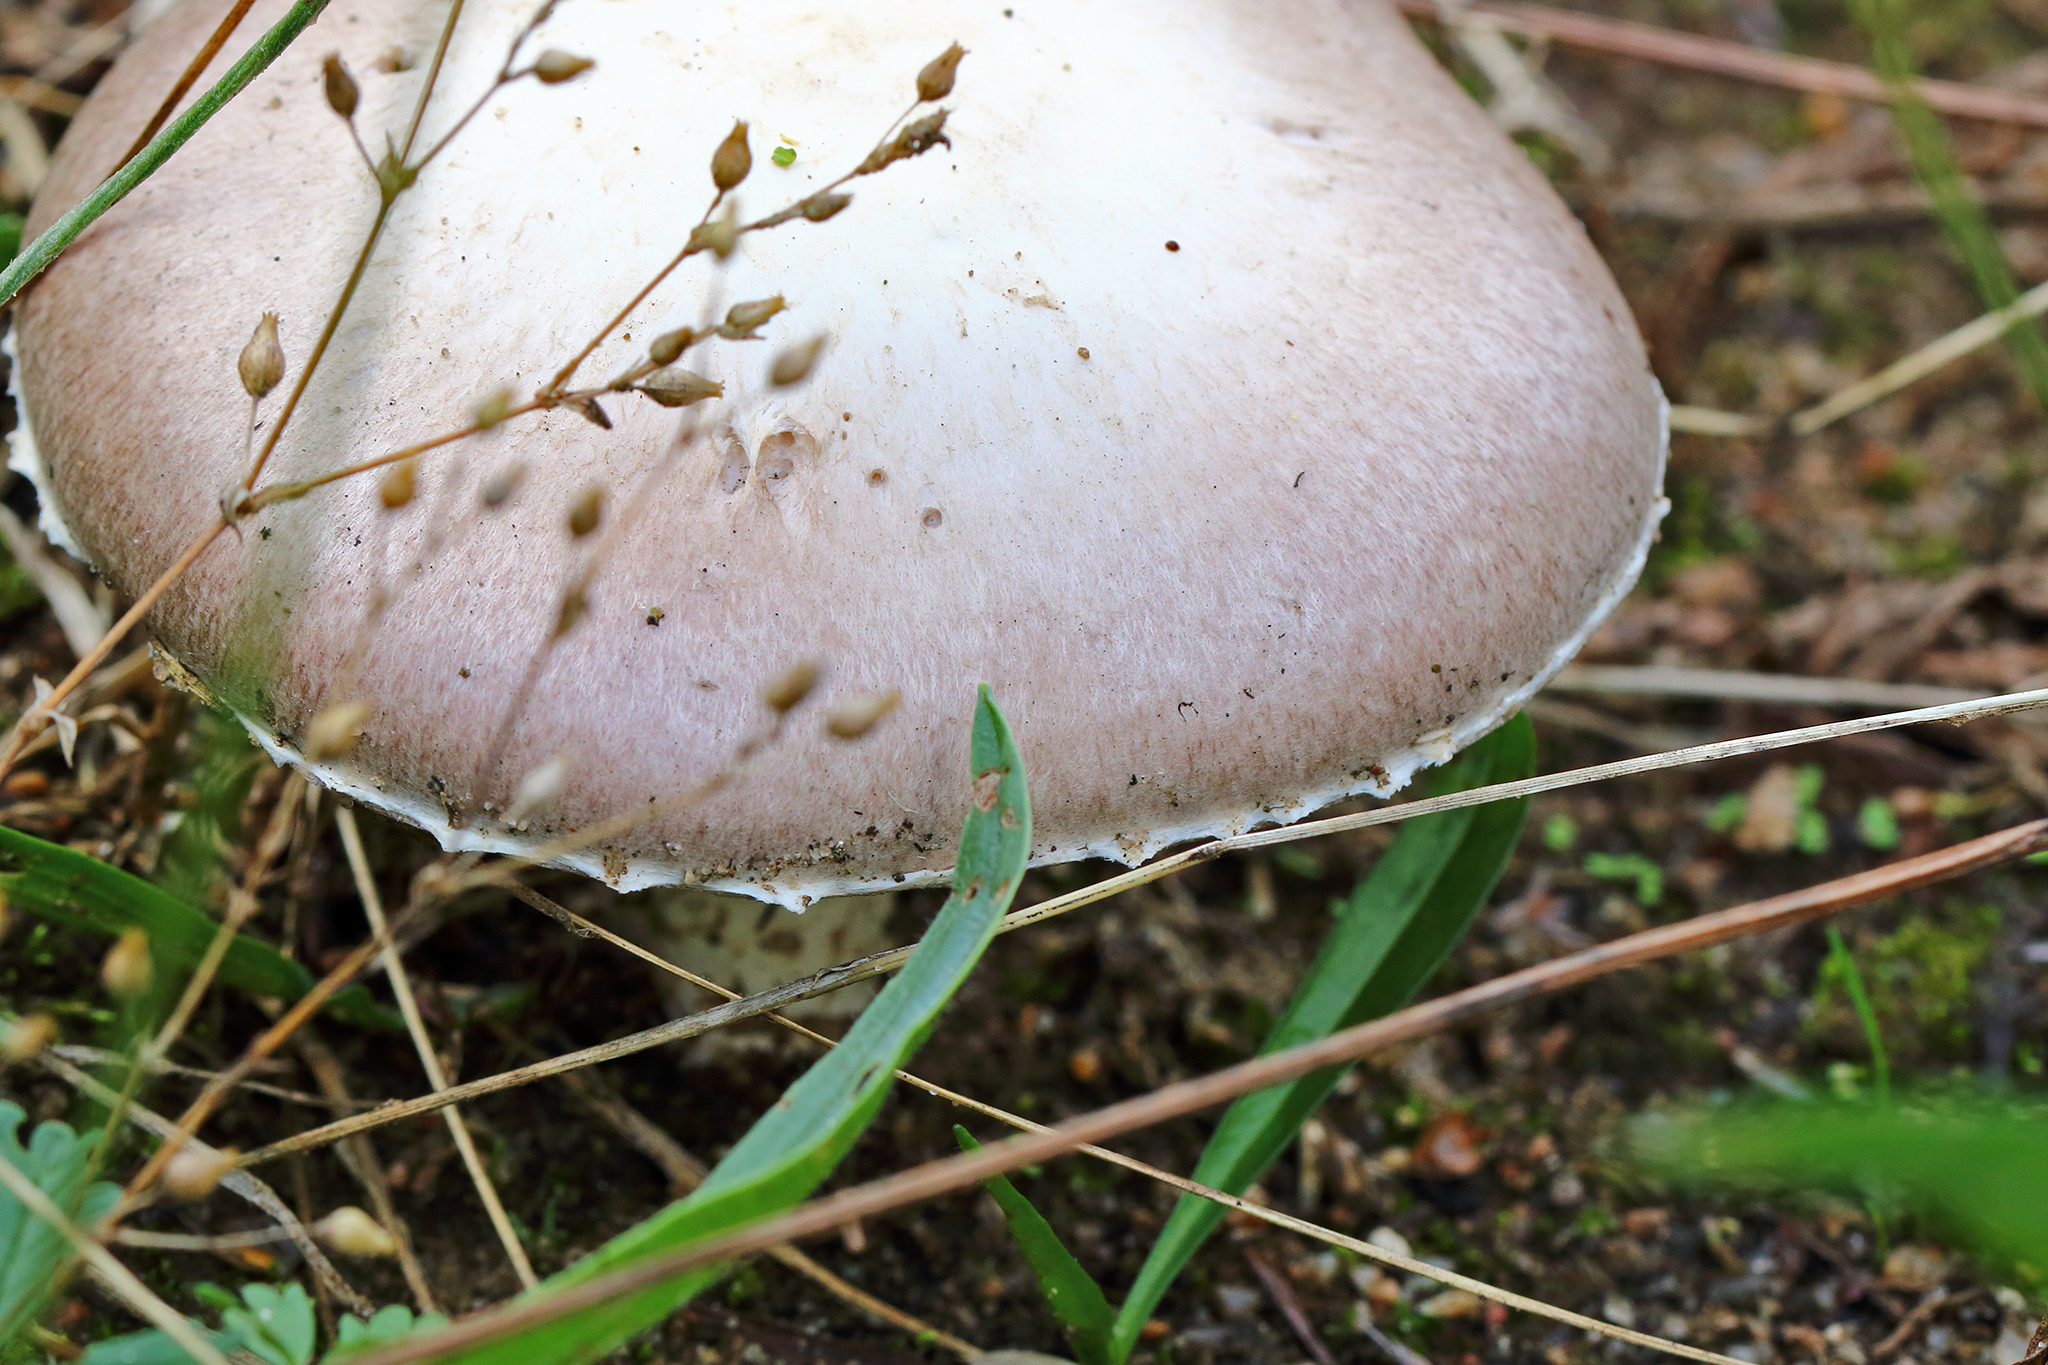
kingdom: Fungi
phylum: Basidiomycota
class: Agaricomycetes
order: Agaricales
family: Agaricaceae
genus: Agaricus
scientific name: Agaricus arvensis
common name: Horse mushroom
